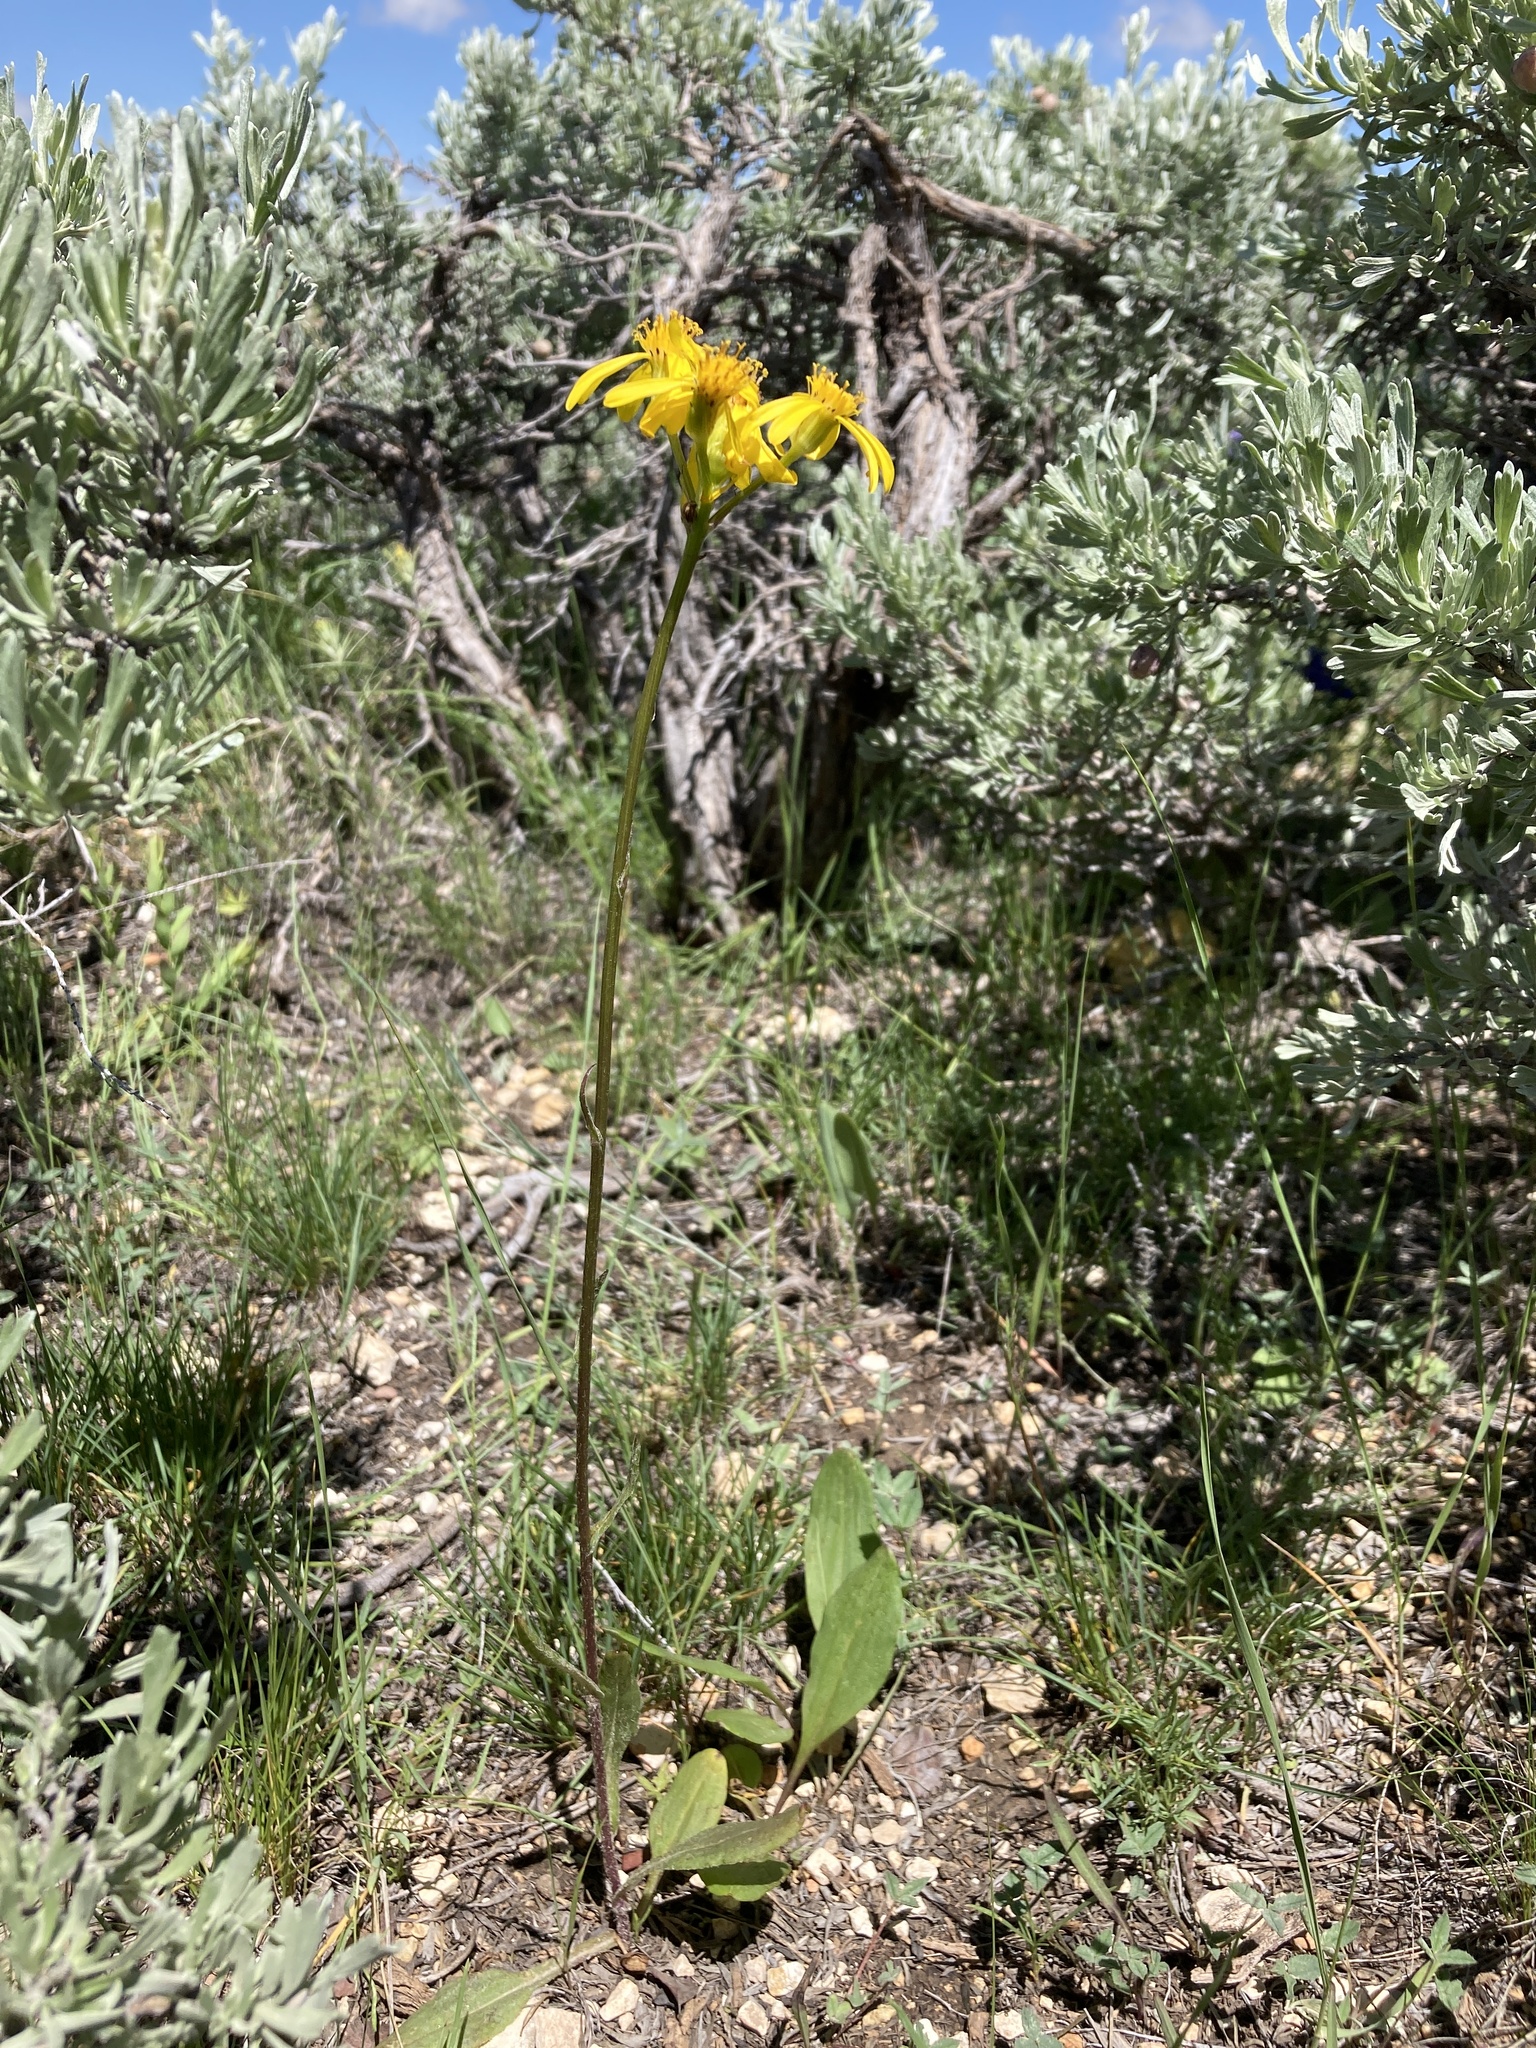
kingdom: Plantae
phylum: Tracheophyta
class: Magnoliopsida
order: Asterales
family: Asteraceae
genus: Senecio
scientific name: Senecio integerrimus
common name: Gaugeplant
